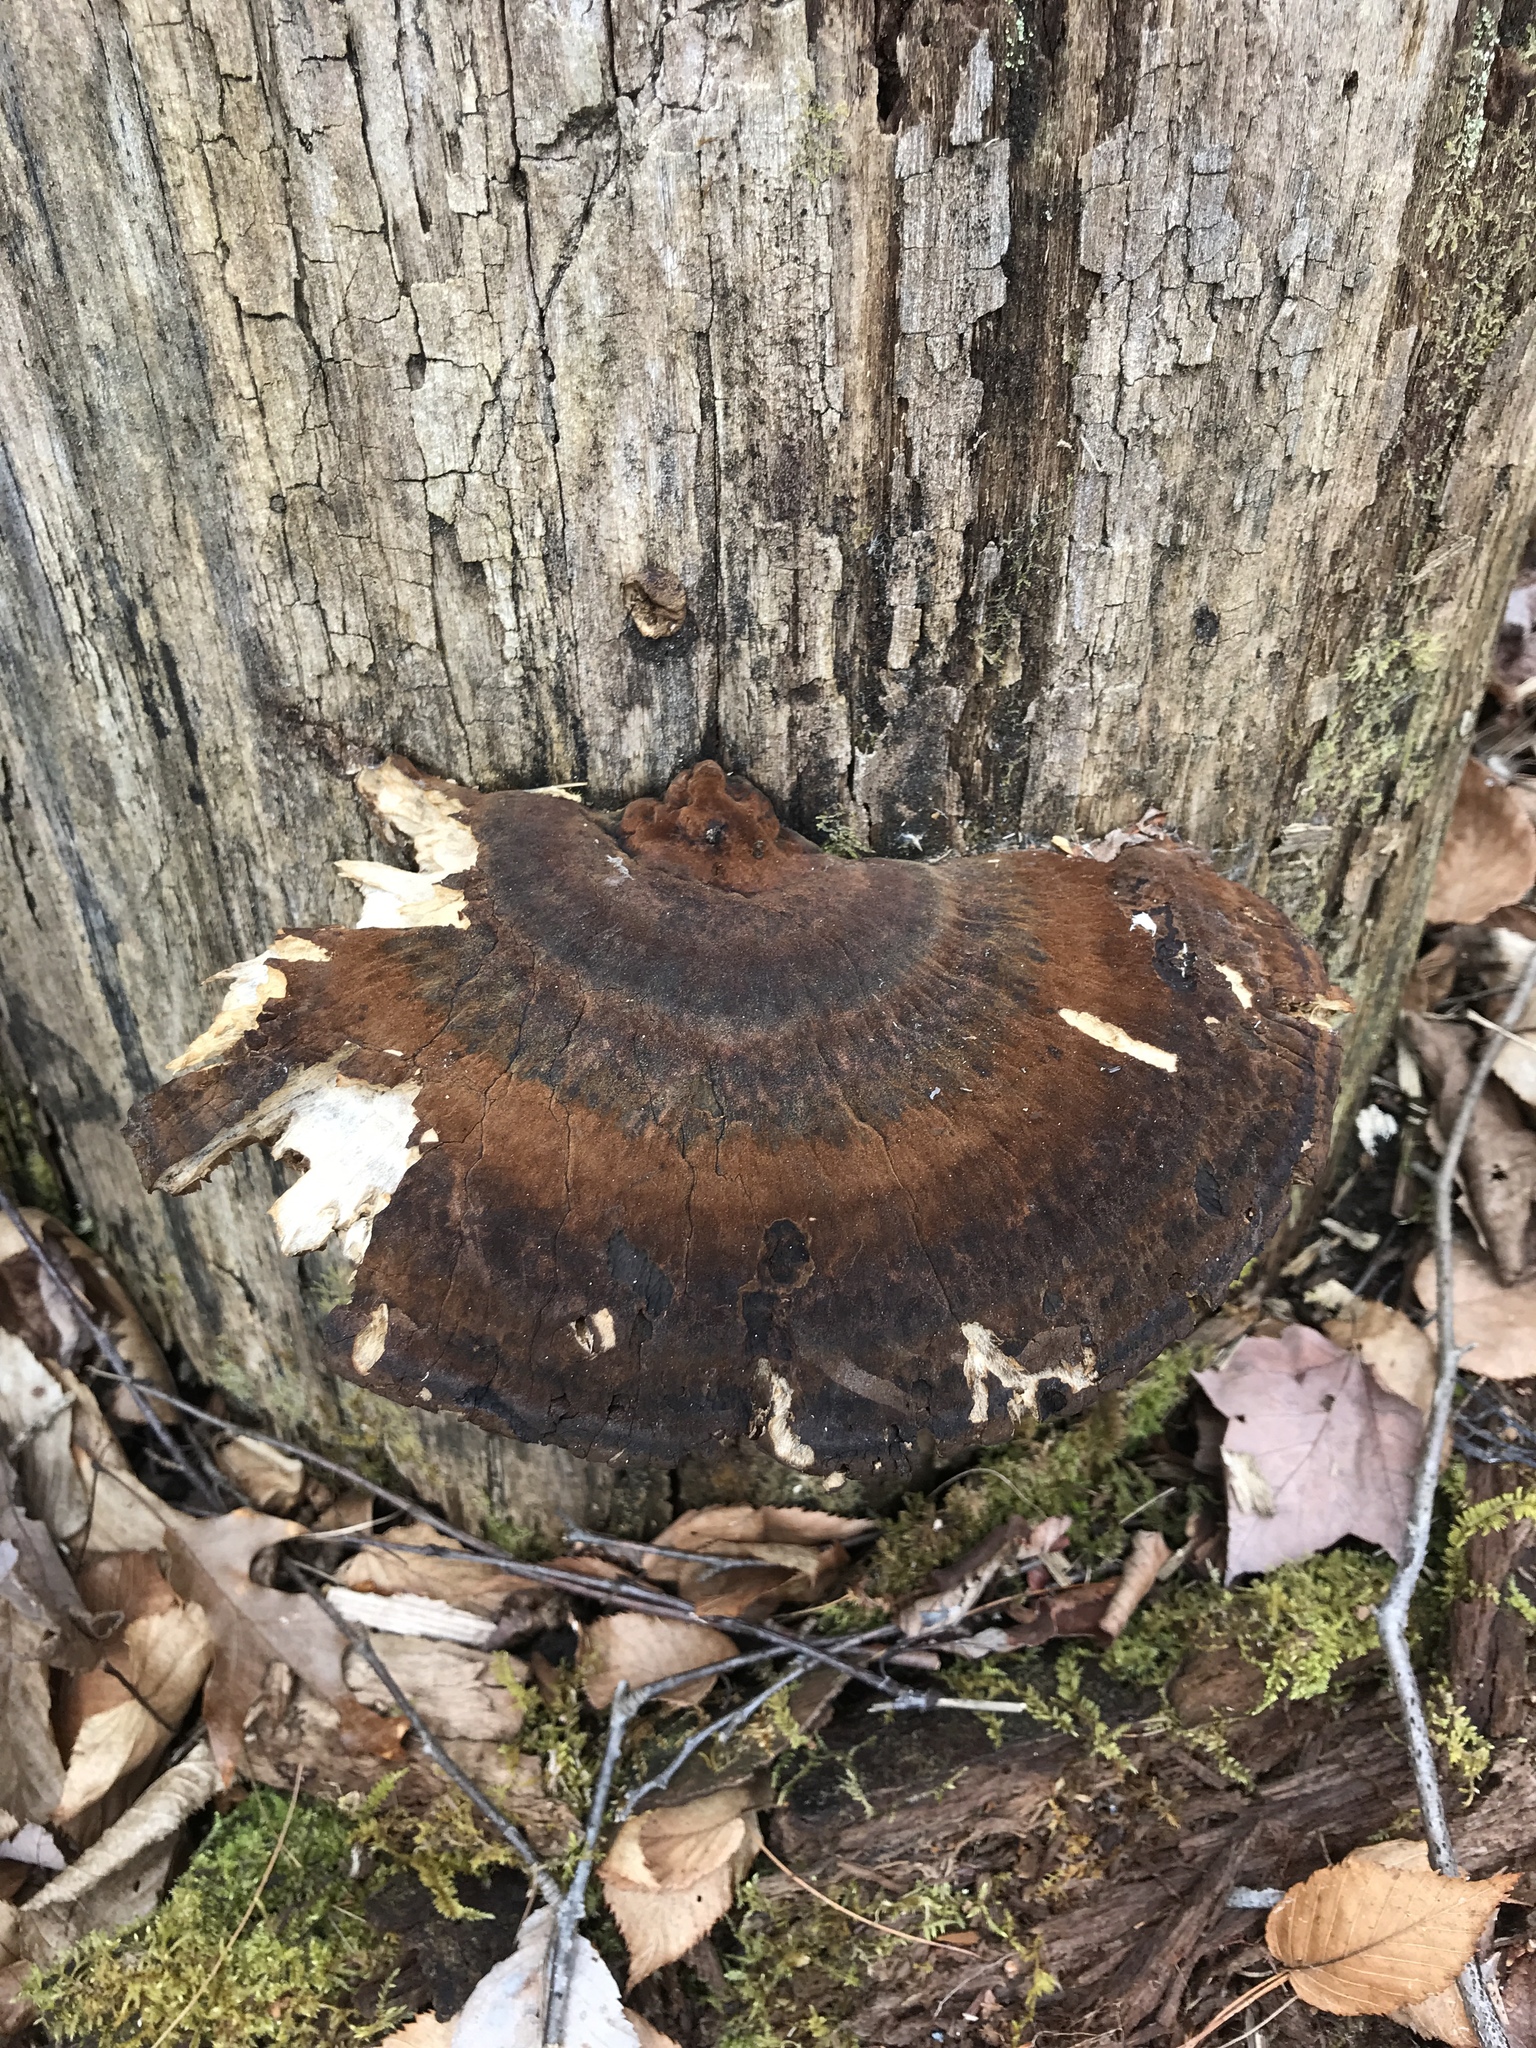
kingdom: Fungi
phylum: Basidiomycota
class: Agaricomycetes
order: Polyporales
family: Ischnodermataceae
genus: Ischnoderma
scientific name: Ischnoderma resinosum
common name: Resinous polypore
